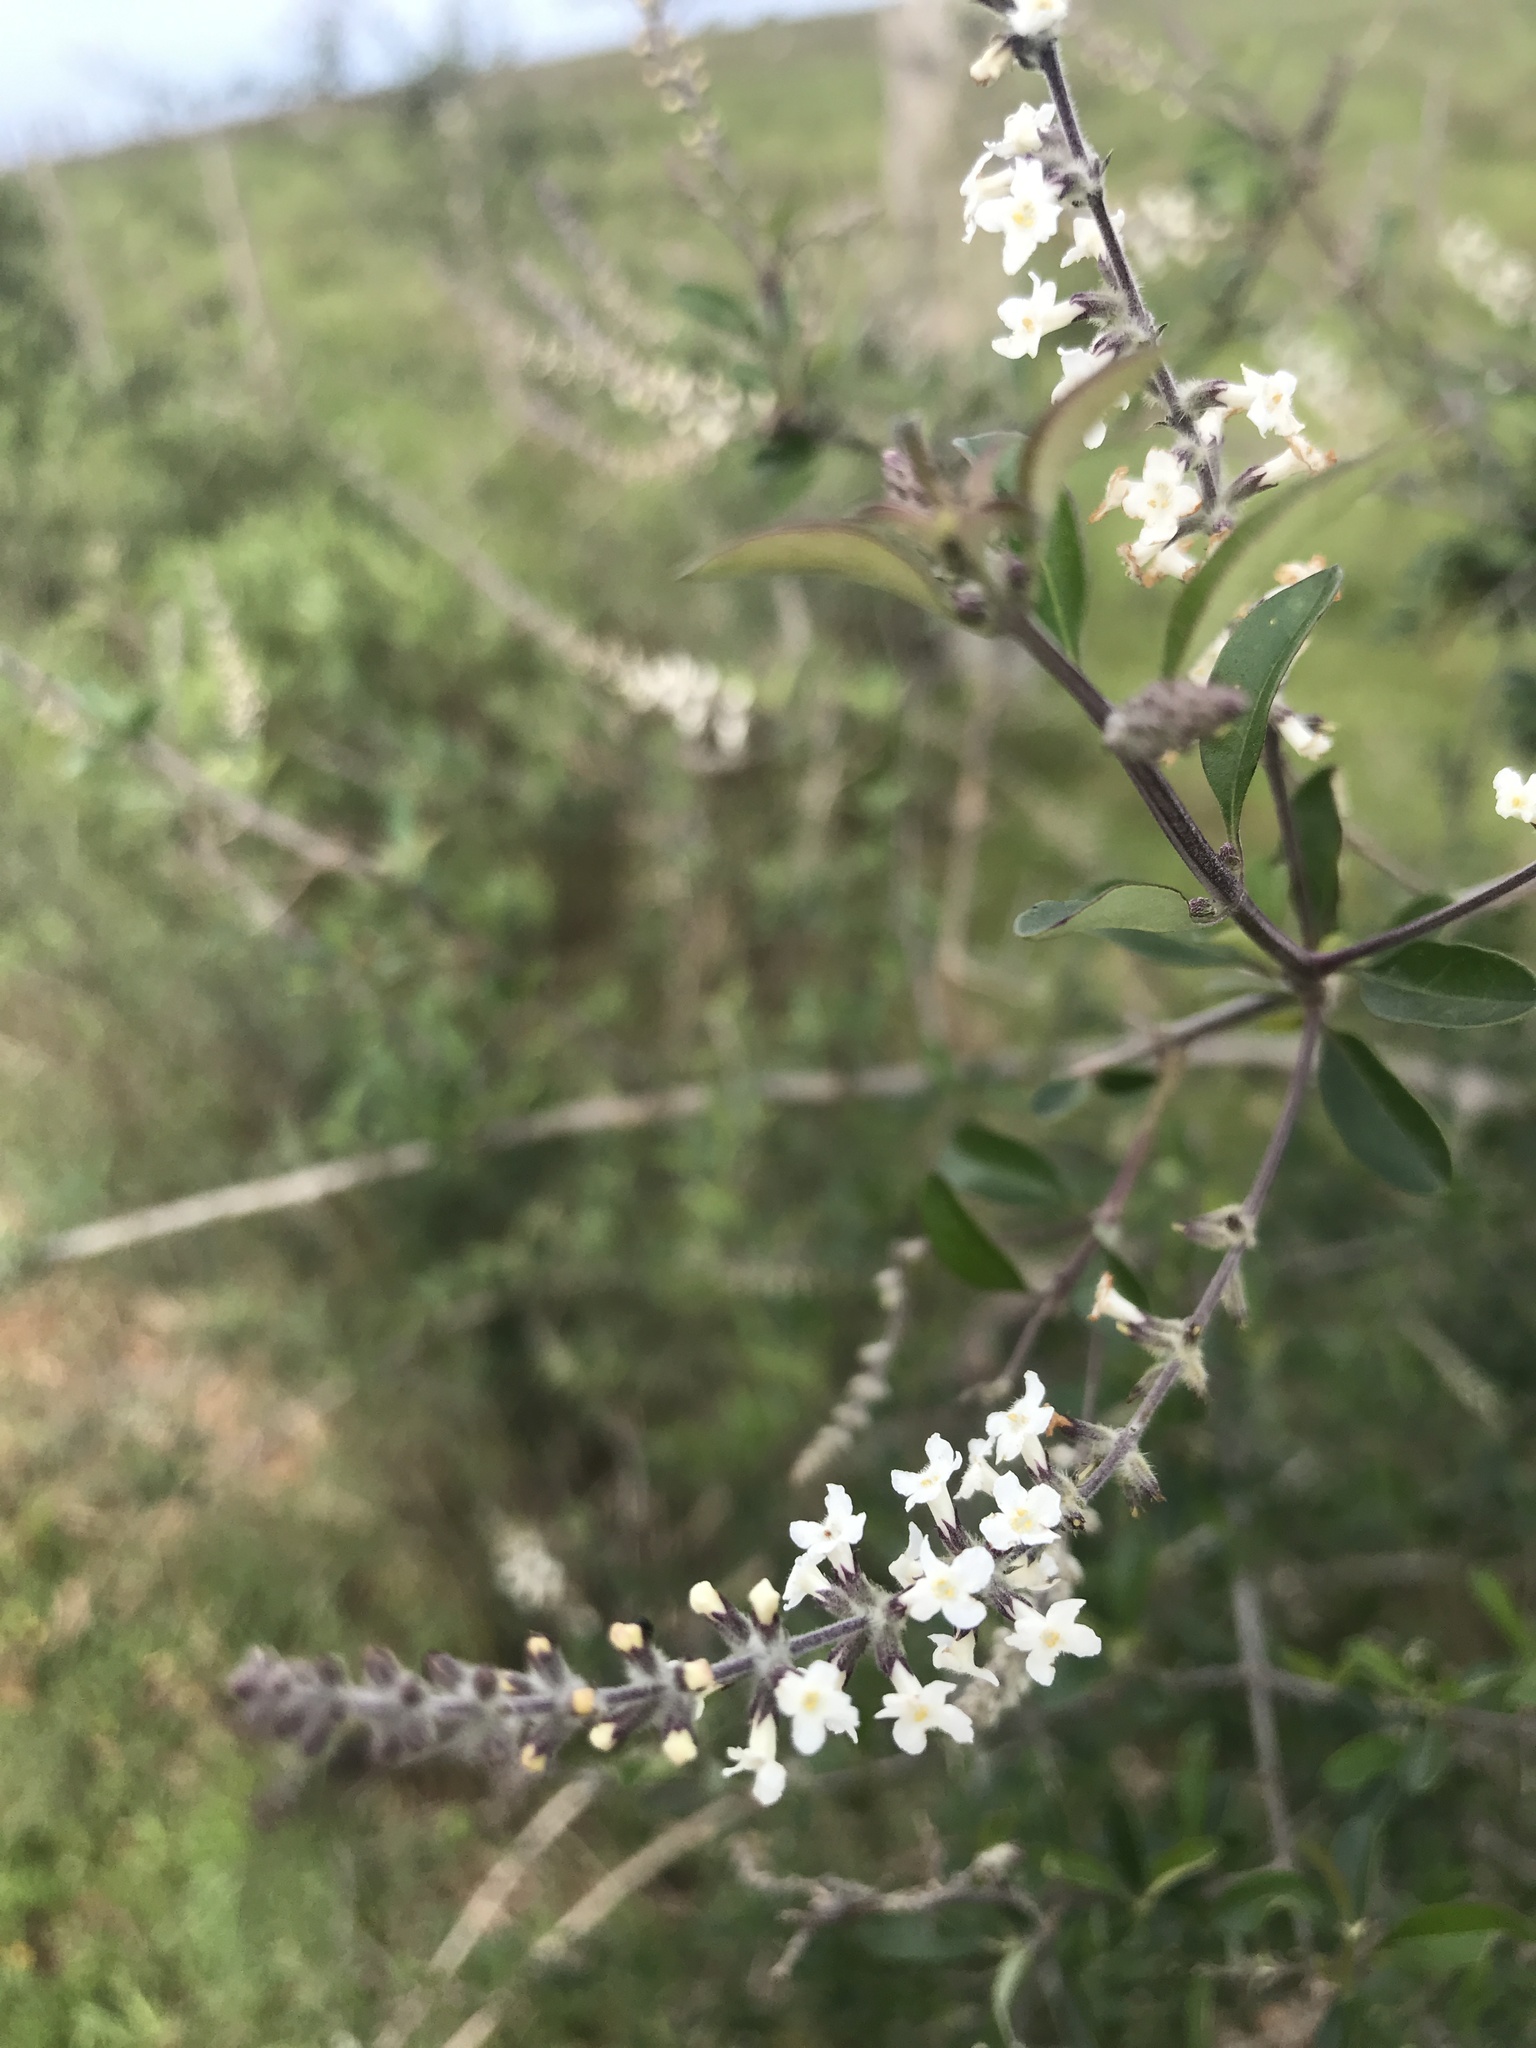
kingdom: Plantae
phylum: Tracheophyta
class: Magnoliopsida
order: Lamiales
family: Verbenaceae
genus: Aloysia
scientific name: Aloysia gratissima
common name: Common bee-brush
